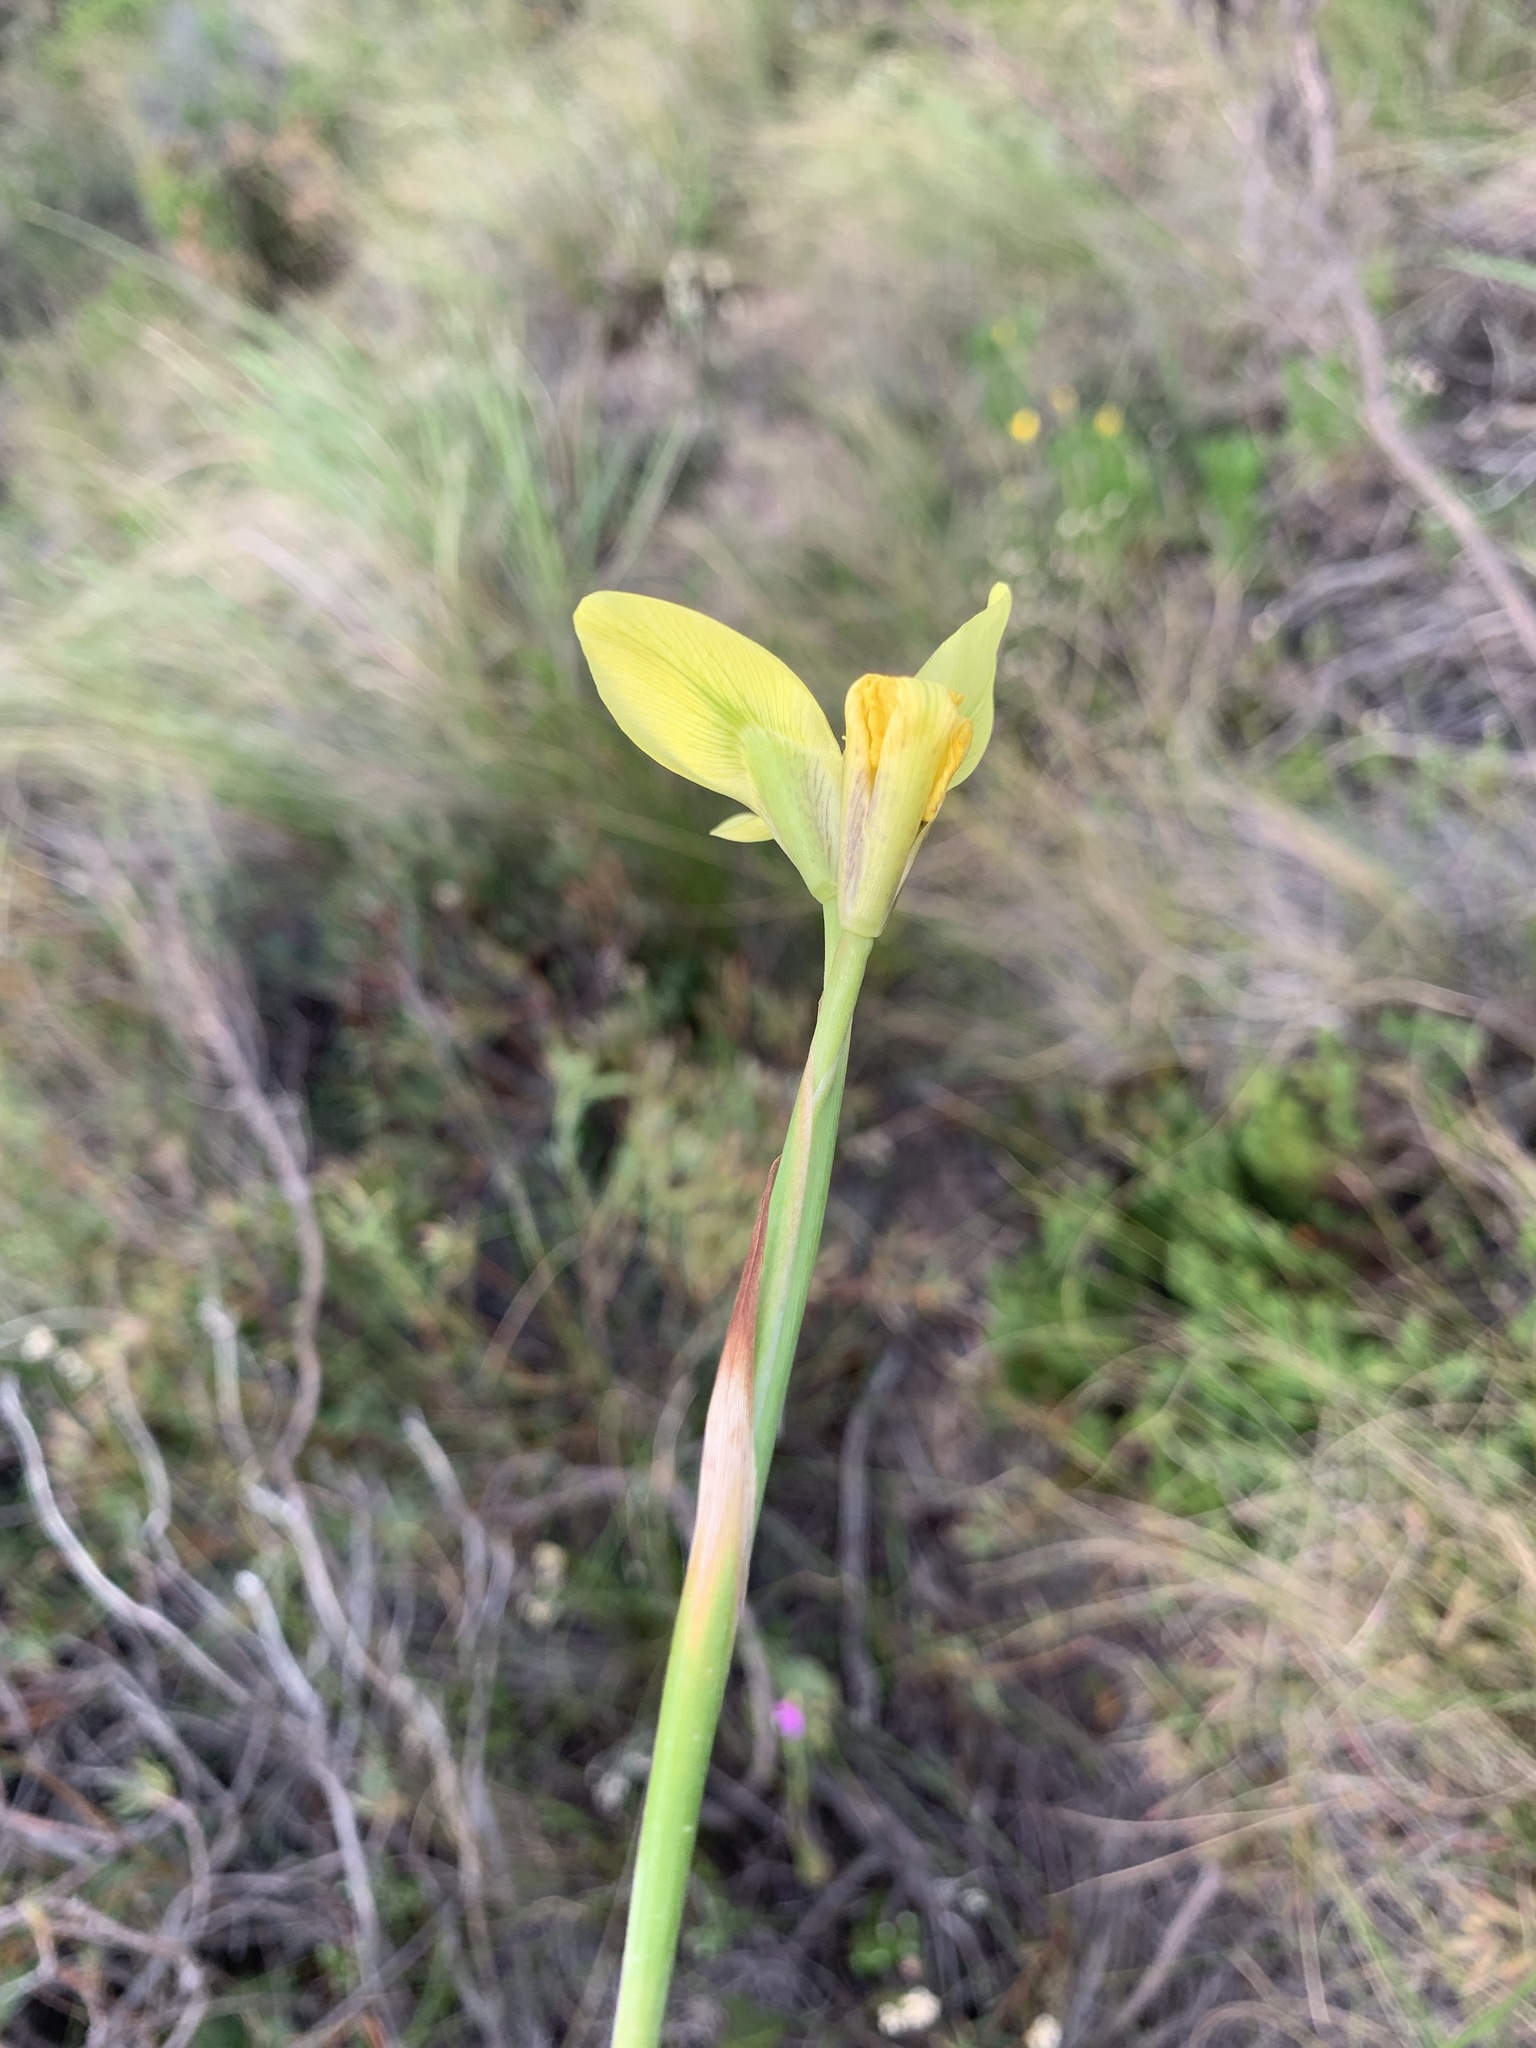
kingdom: Plantae
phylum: Tracheophyta
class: Liliopsida
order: Asparagales
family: Iridaceae
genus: Moraea
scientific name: Moraea bellendenii
